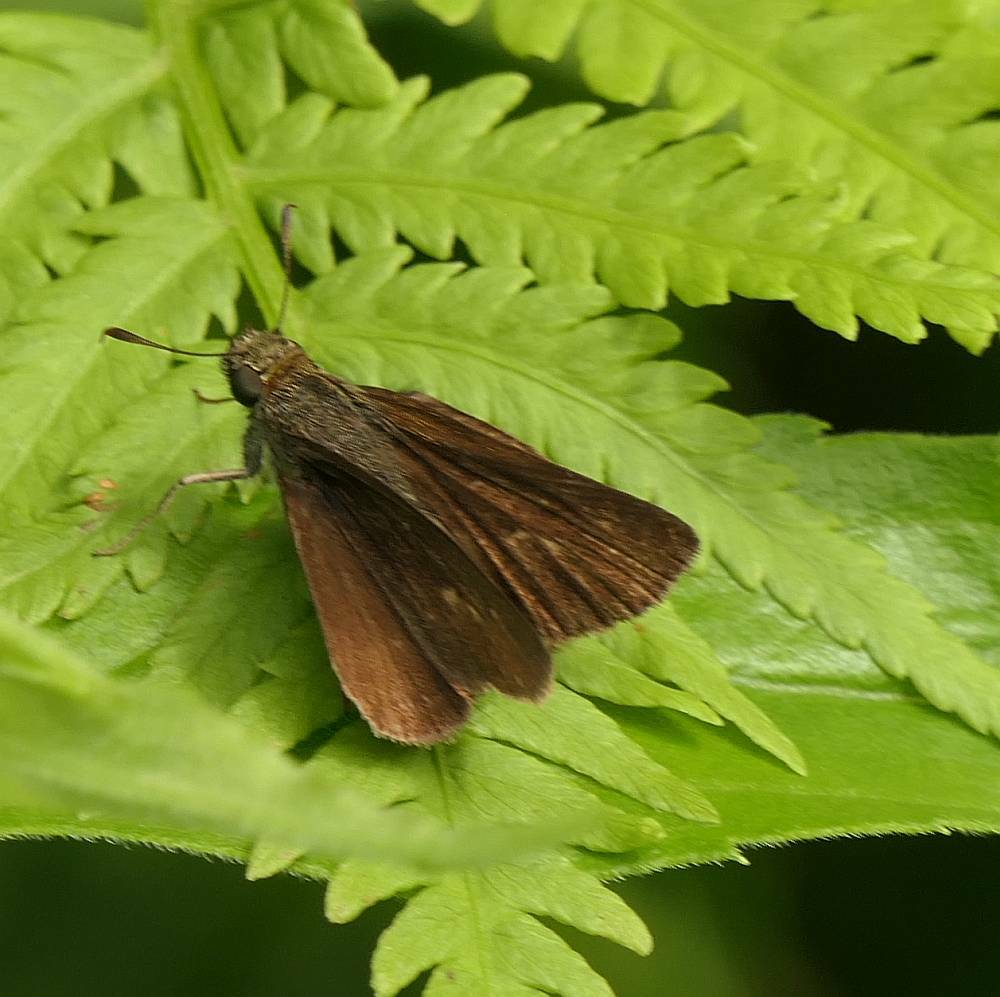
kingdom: Animalia
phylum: Arthropoda
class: Insecta
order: Lepidoptera
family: Hesperiidae
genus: Euphyes
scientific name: Euphyes vestris
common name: Dun skipper
